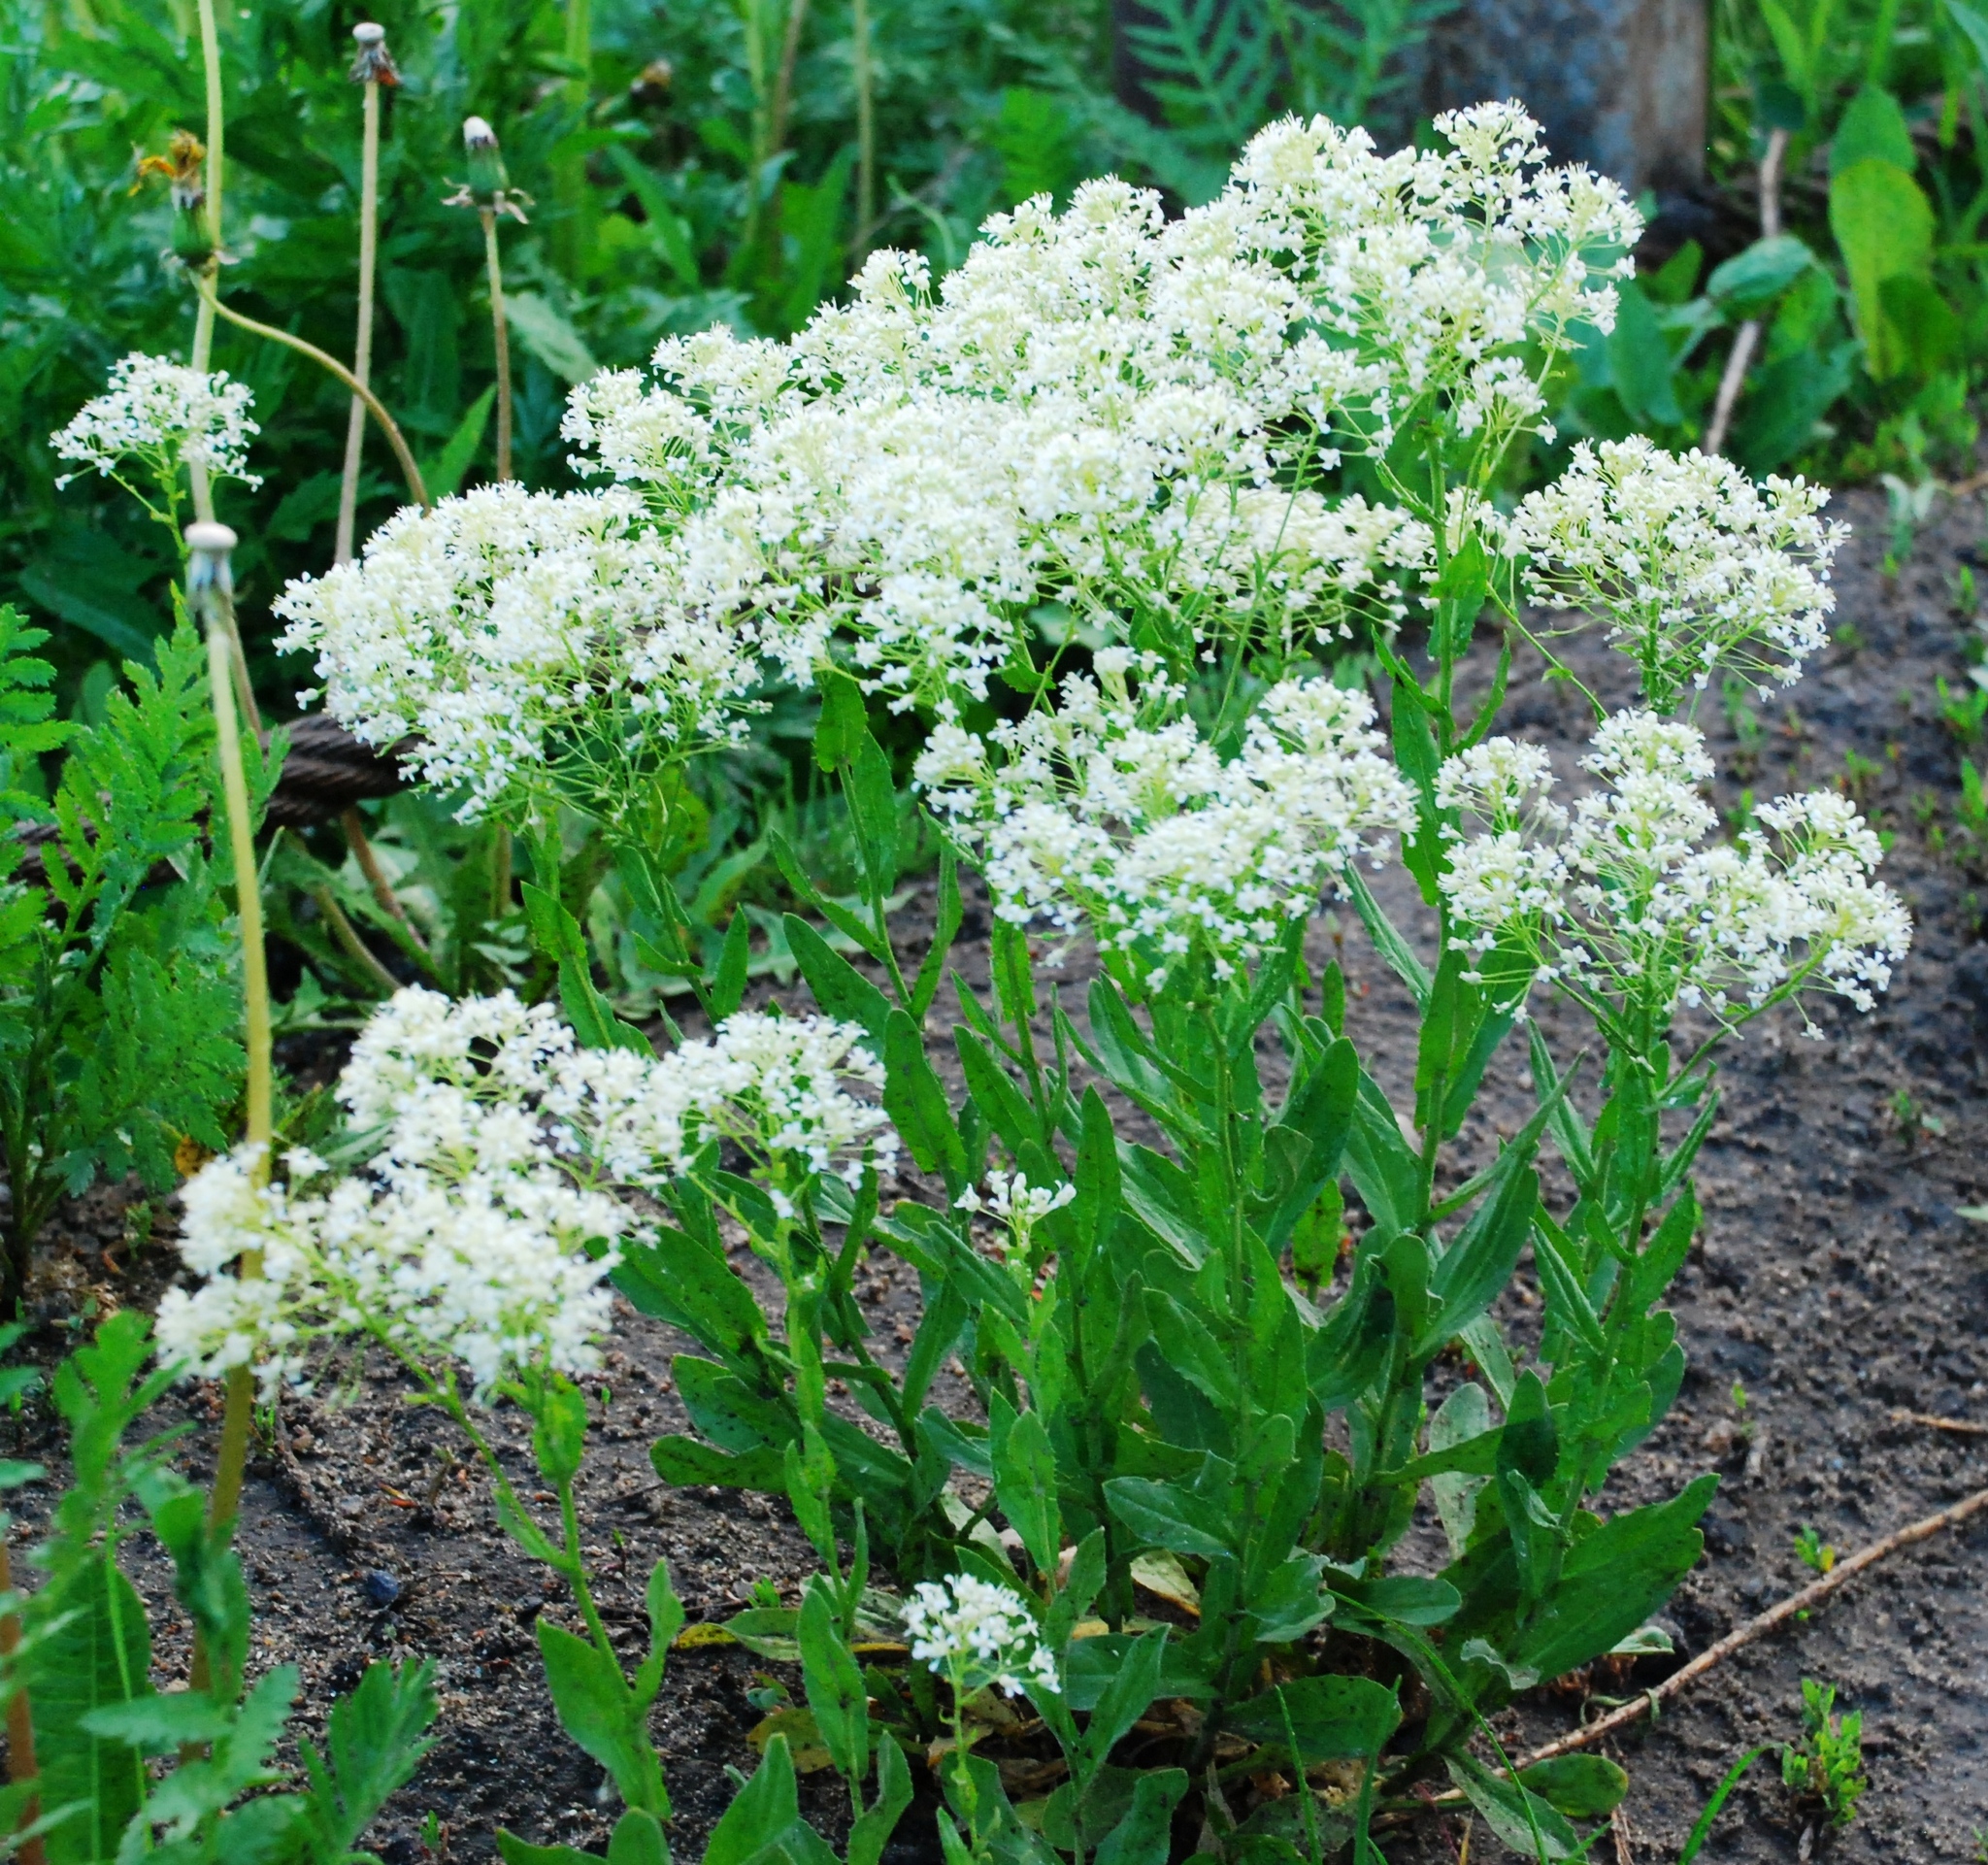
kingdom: Plantae
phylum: Tracheophyta
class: Magnoliopsida
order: Brassicales
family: Brassicaceae
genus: Lepidium
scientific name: Lepidium draba
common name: Hoary cress
